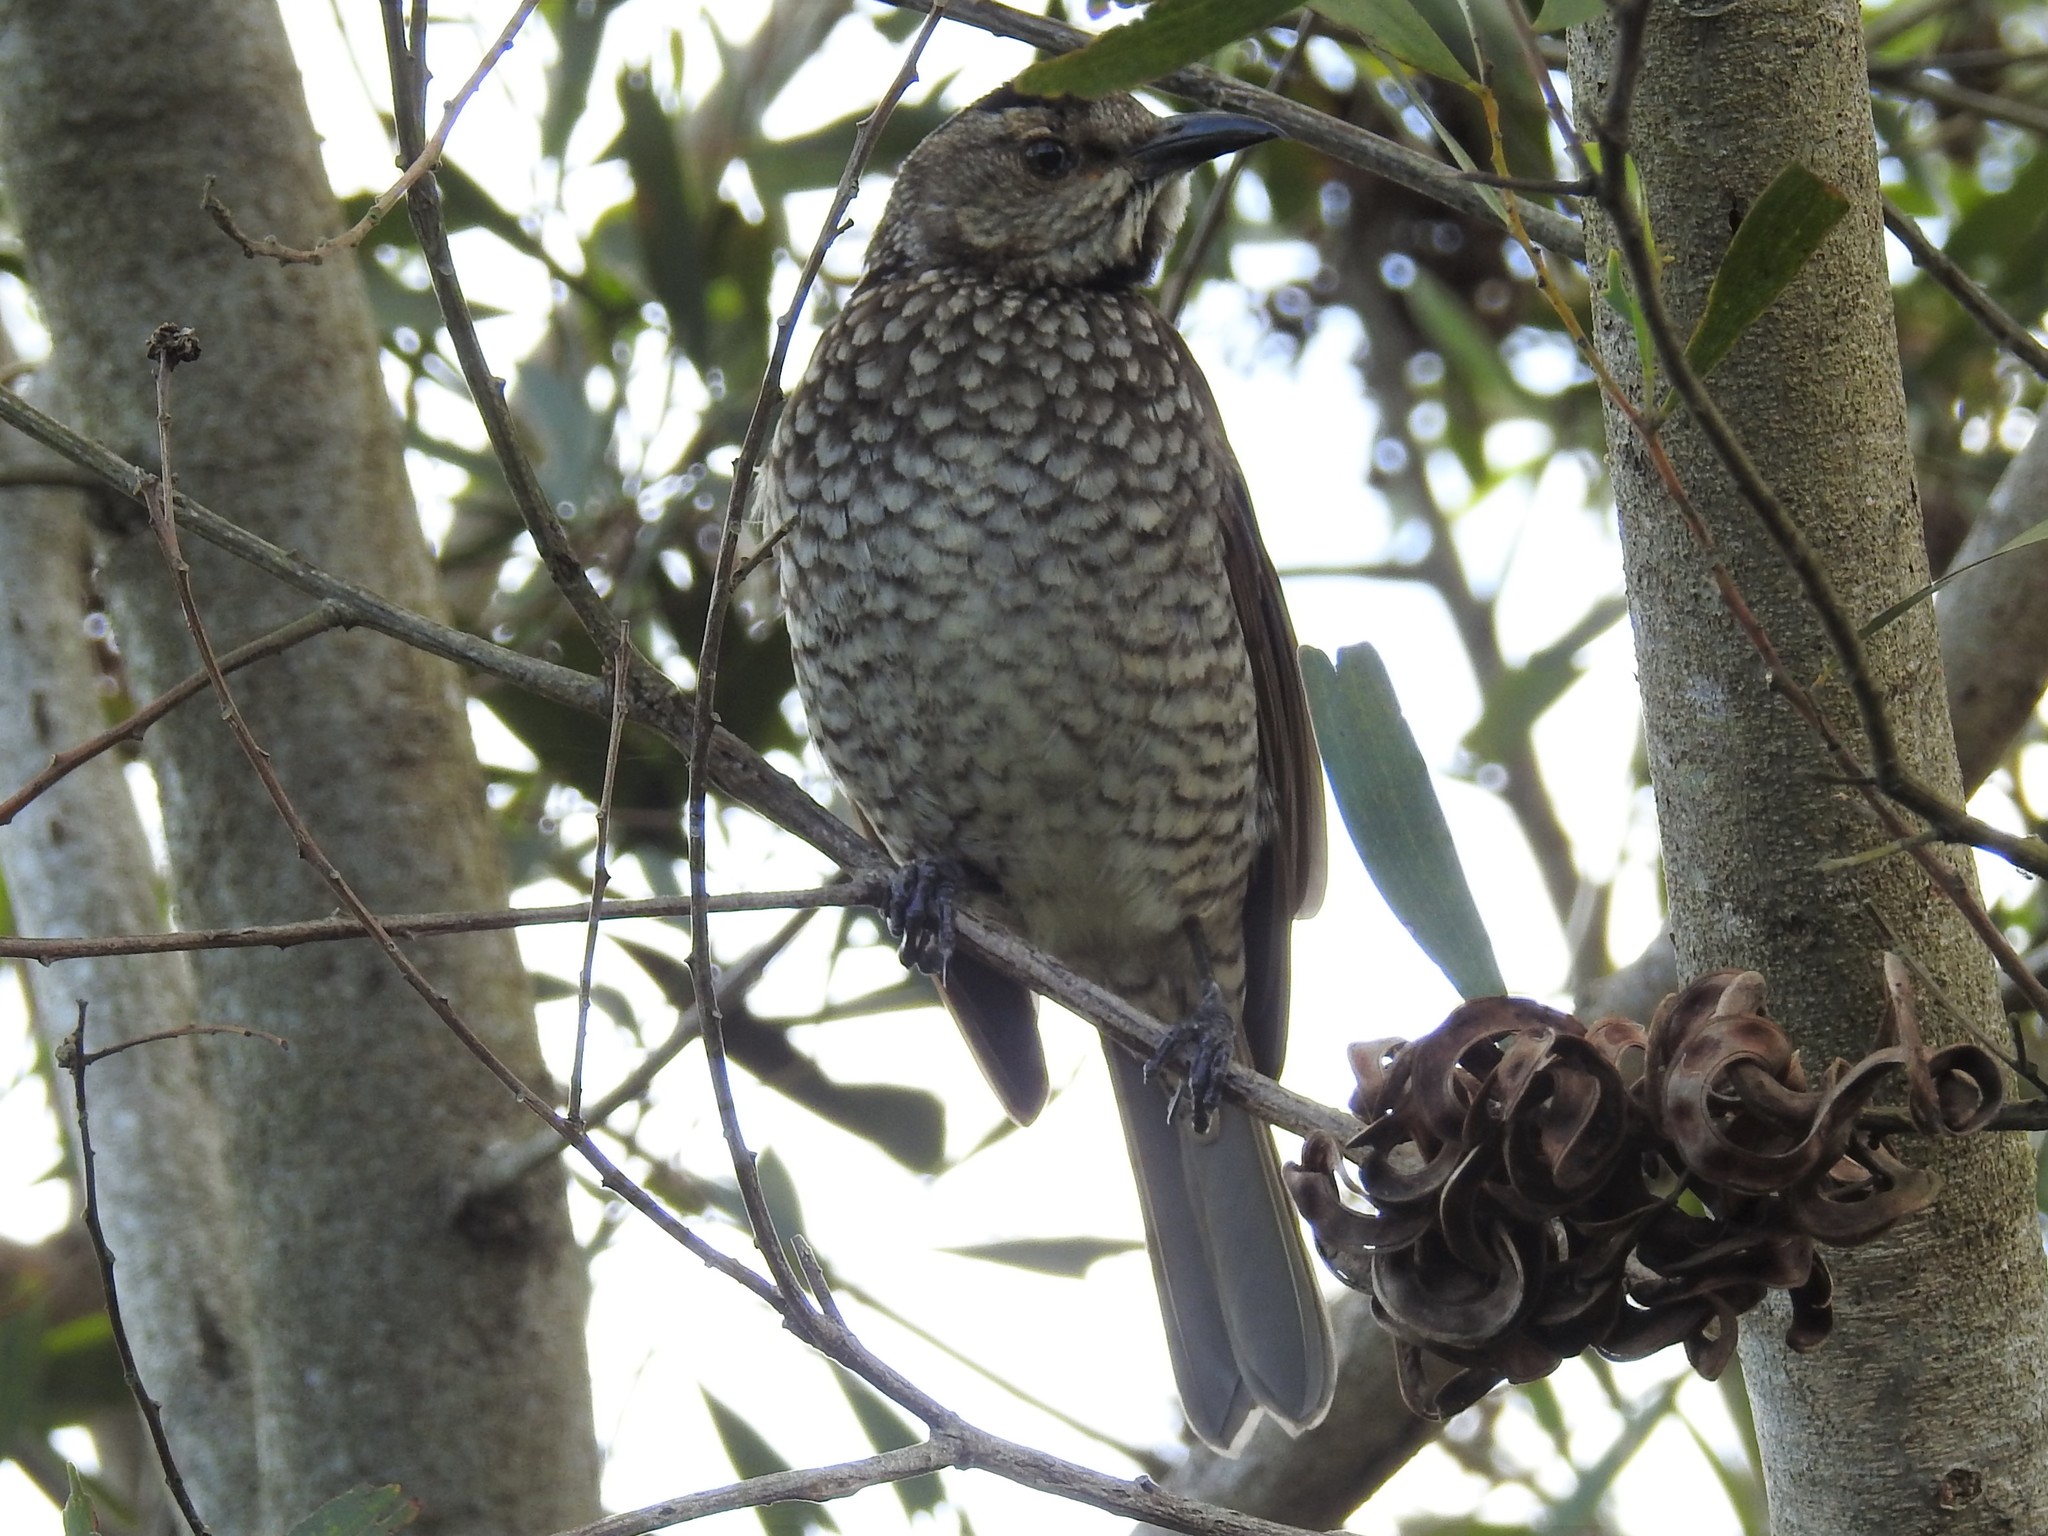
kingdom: Animalia
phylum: Chordata
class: Aves
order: Passeriformes
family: Ptilonorhynchidae
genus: Sericulus
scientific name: Sericulus chrysocephalus
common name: Regent bowerbird
